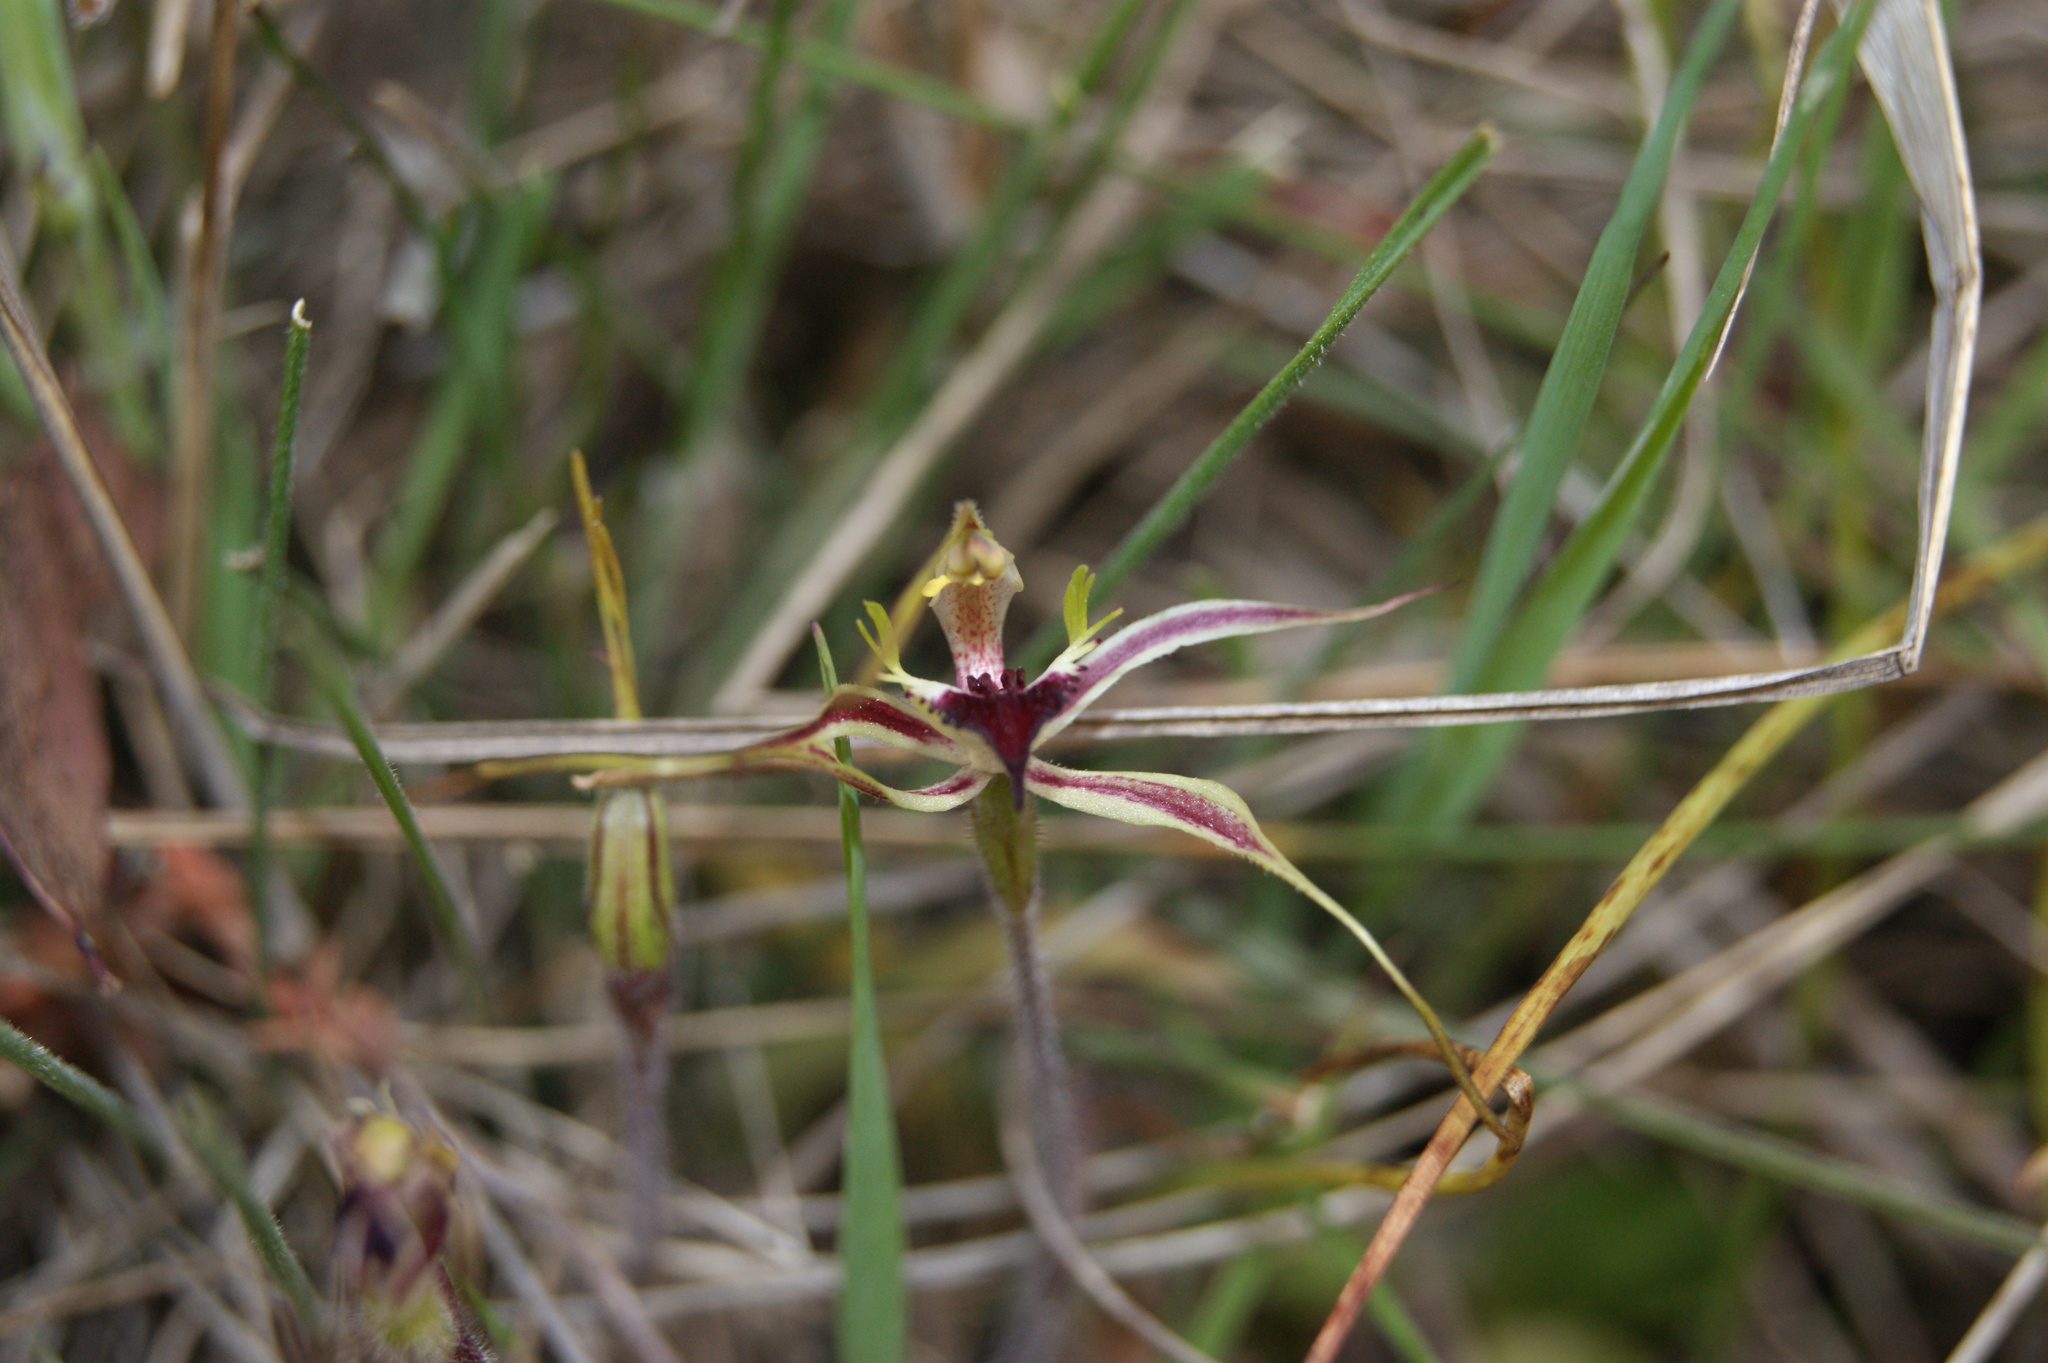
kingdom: Plantae
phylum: Tracheophyta
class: Liliopsida
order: Asparagales
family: Orchidaceae
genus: Caladenia
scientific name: Caladenia tentaculata
